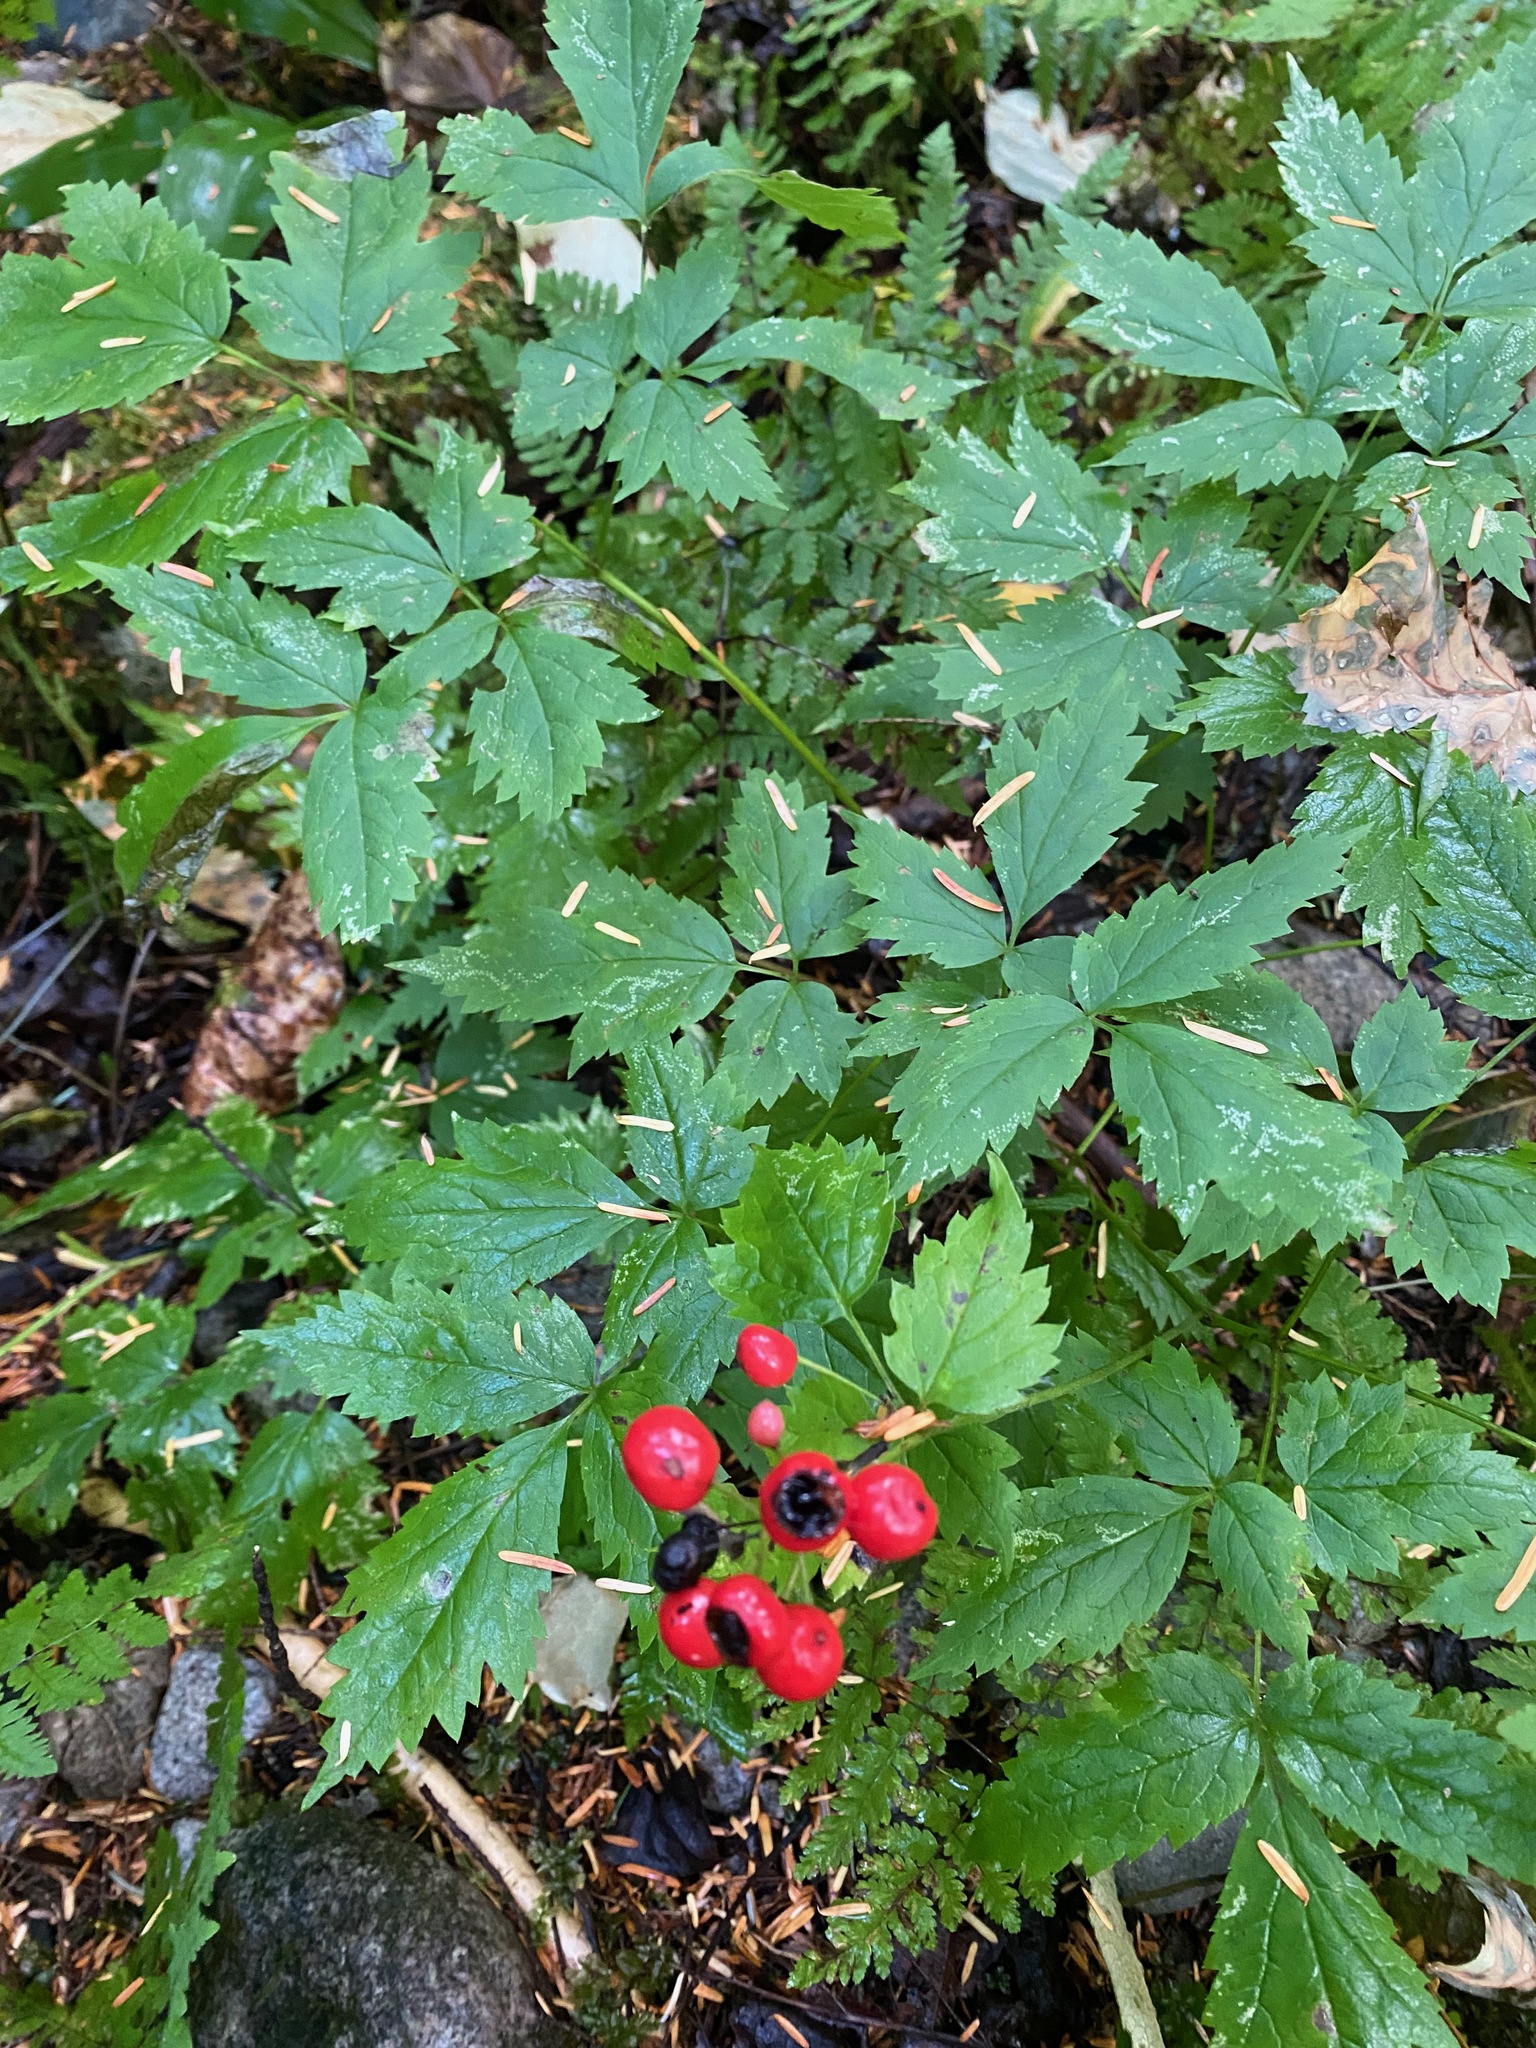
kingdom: Plantae
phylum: Tracheophyta
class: Magnoliopsida
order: Ranunculales
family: Ranunculaceae
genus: Actaea
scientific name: Actaea rubra
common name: Red baneberry
